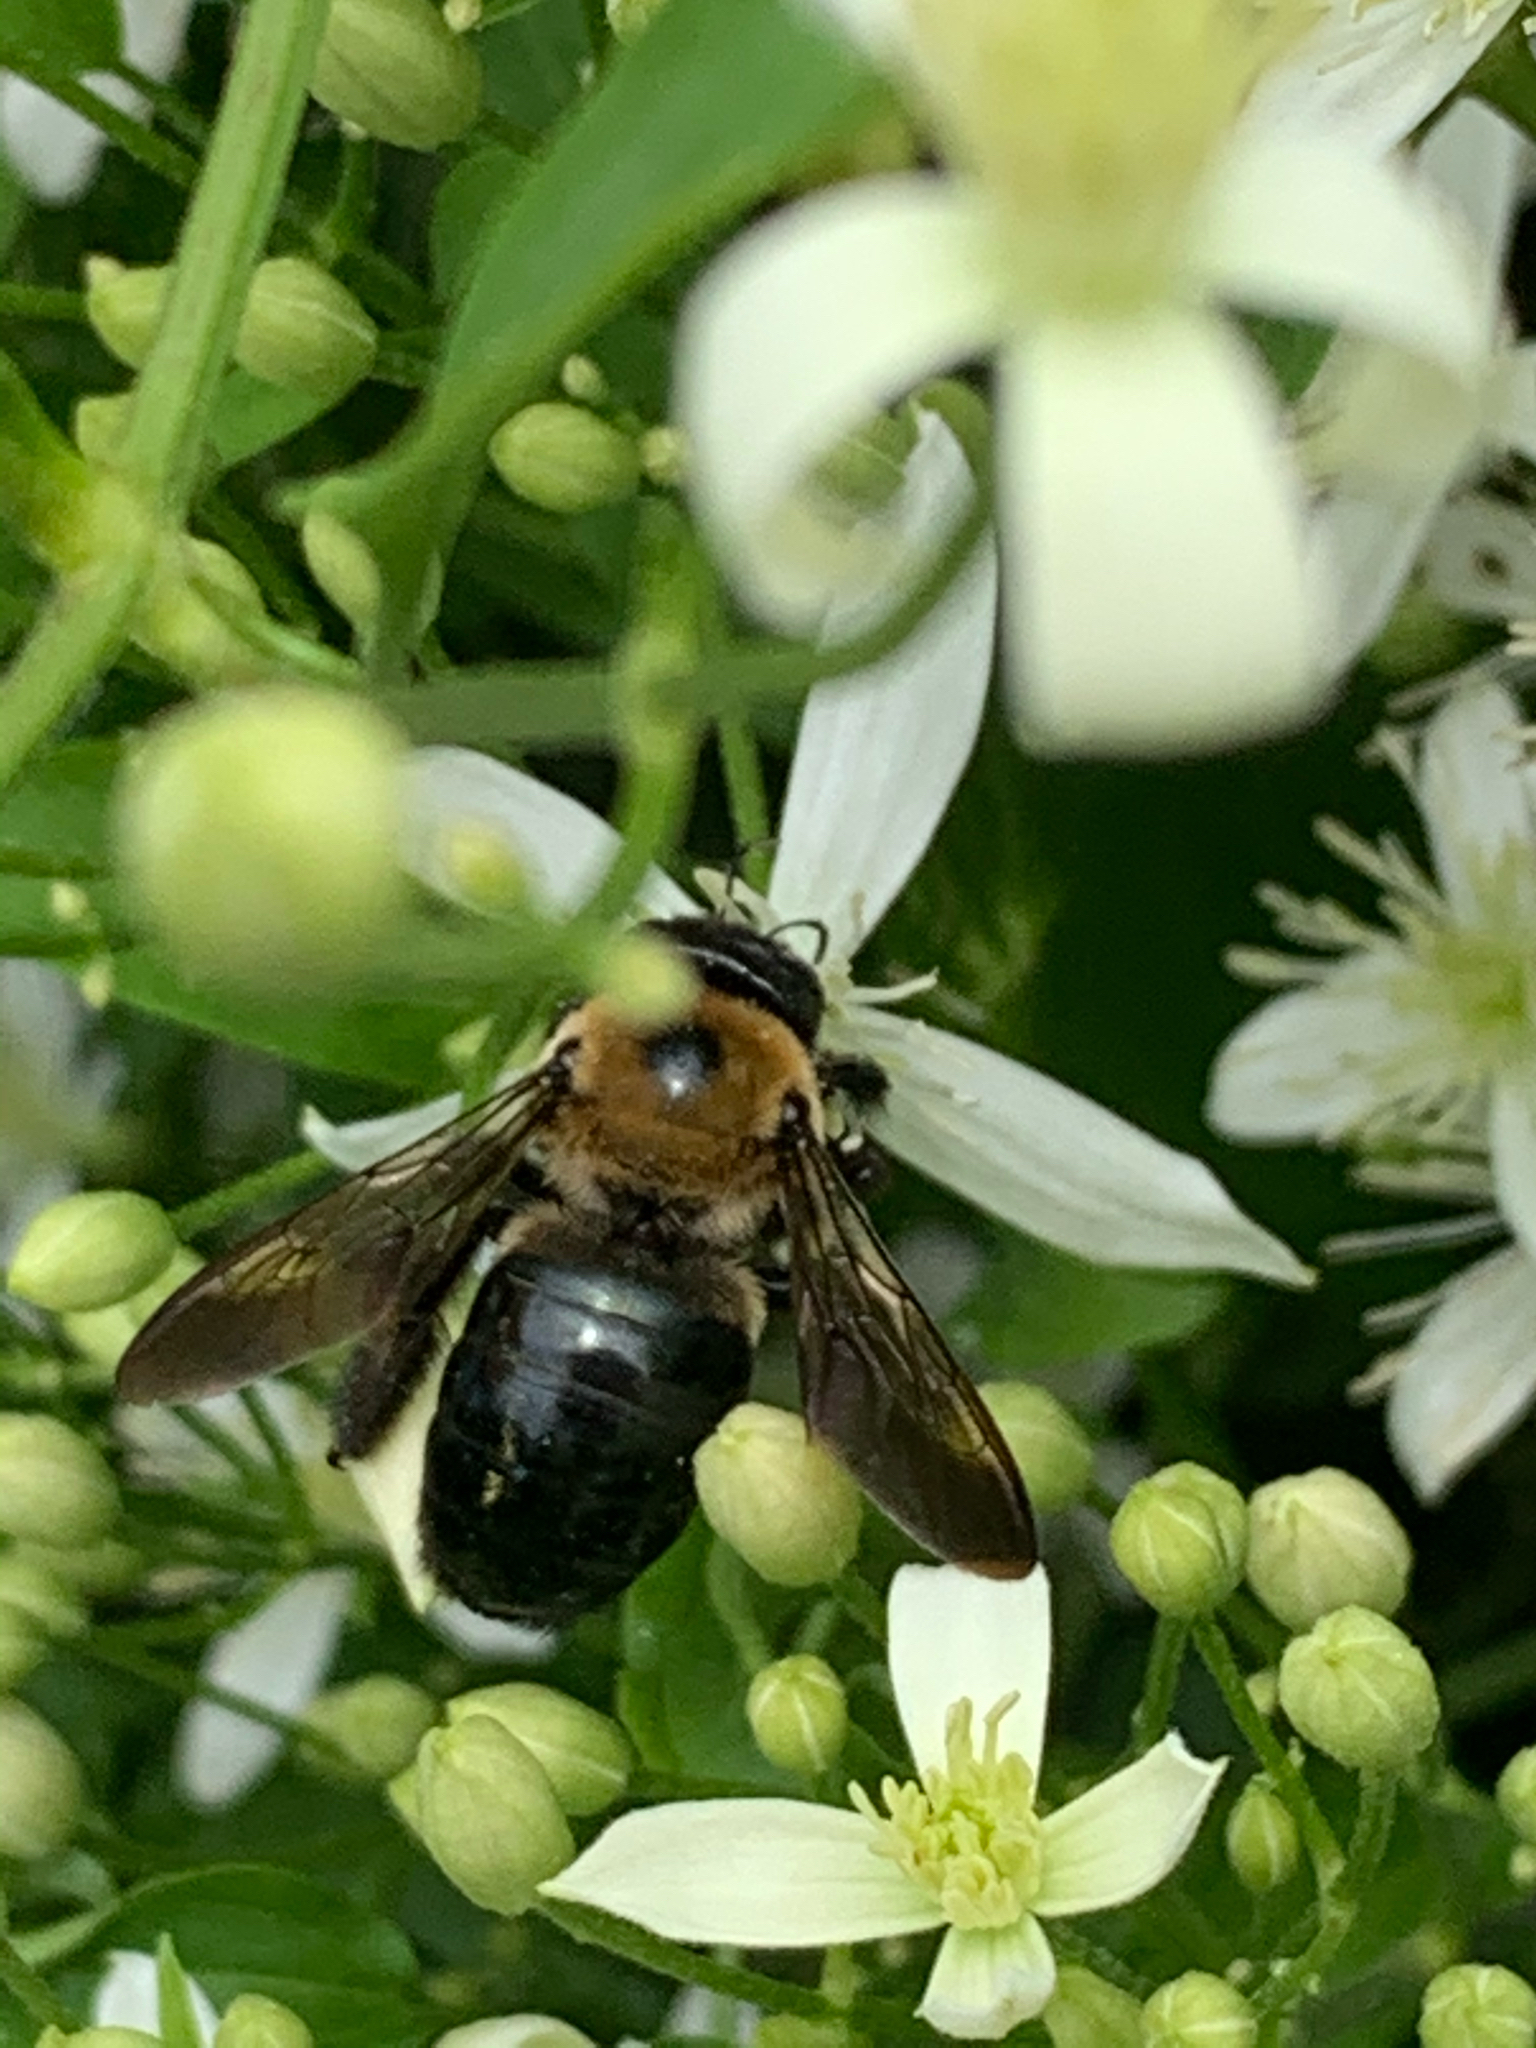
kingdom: Animalia
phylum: Arthropoda
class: Insecta
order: Hymenoptera
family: Apidae
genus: Xylocopa
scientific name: Xylocopa virginica
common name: Carpenter bee
